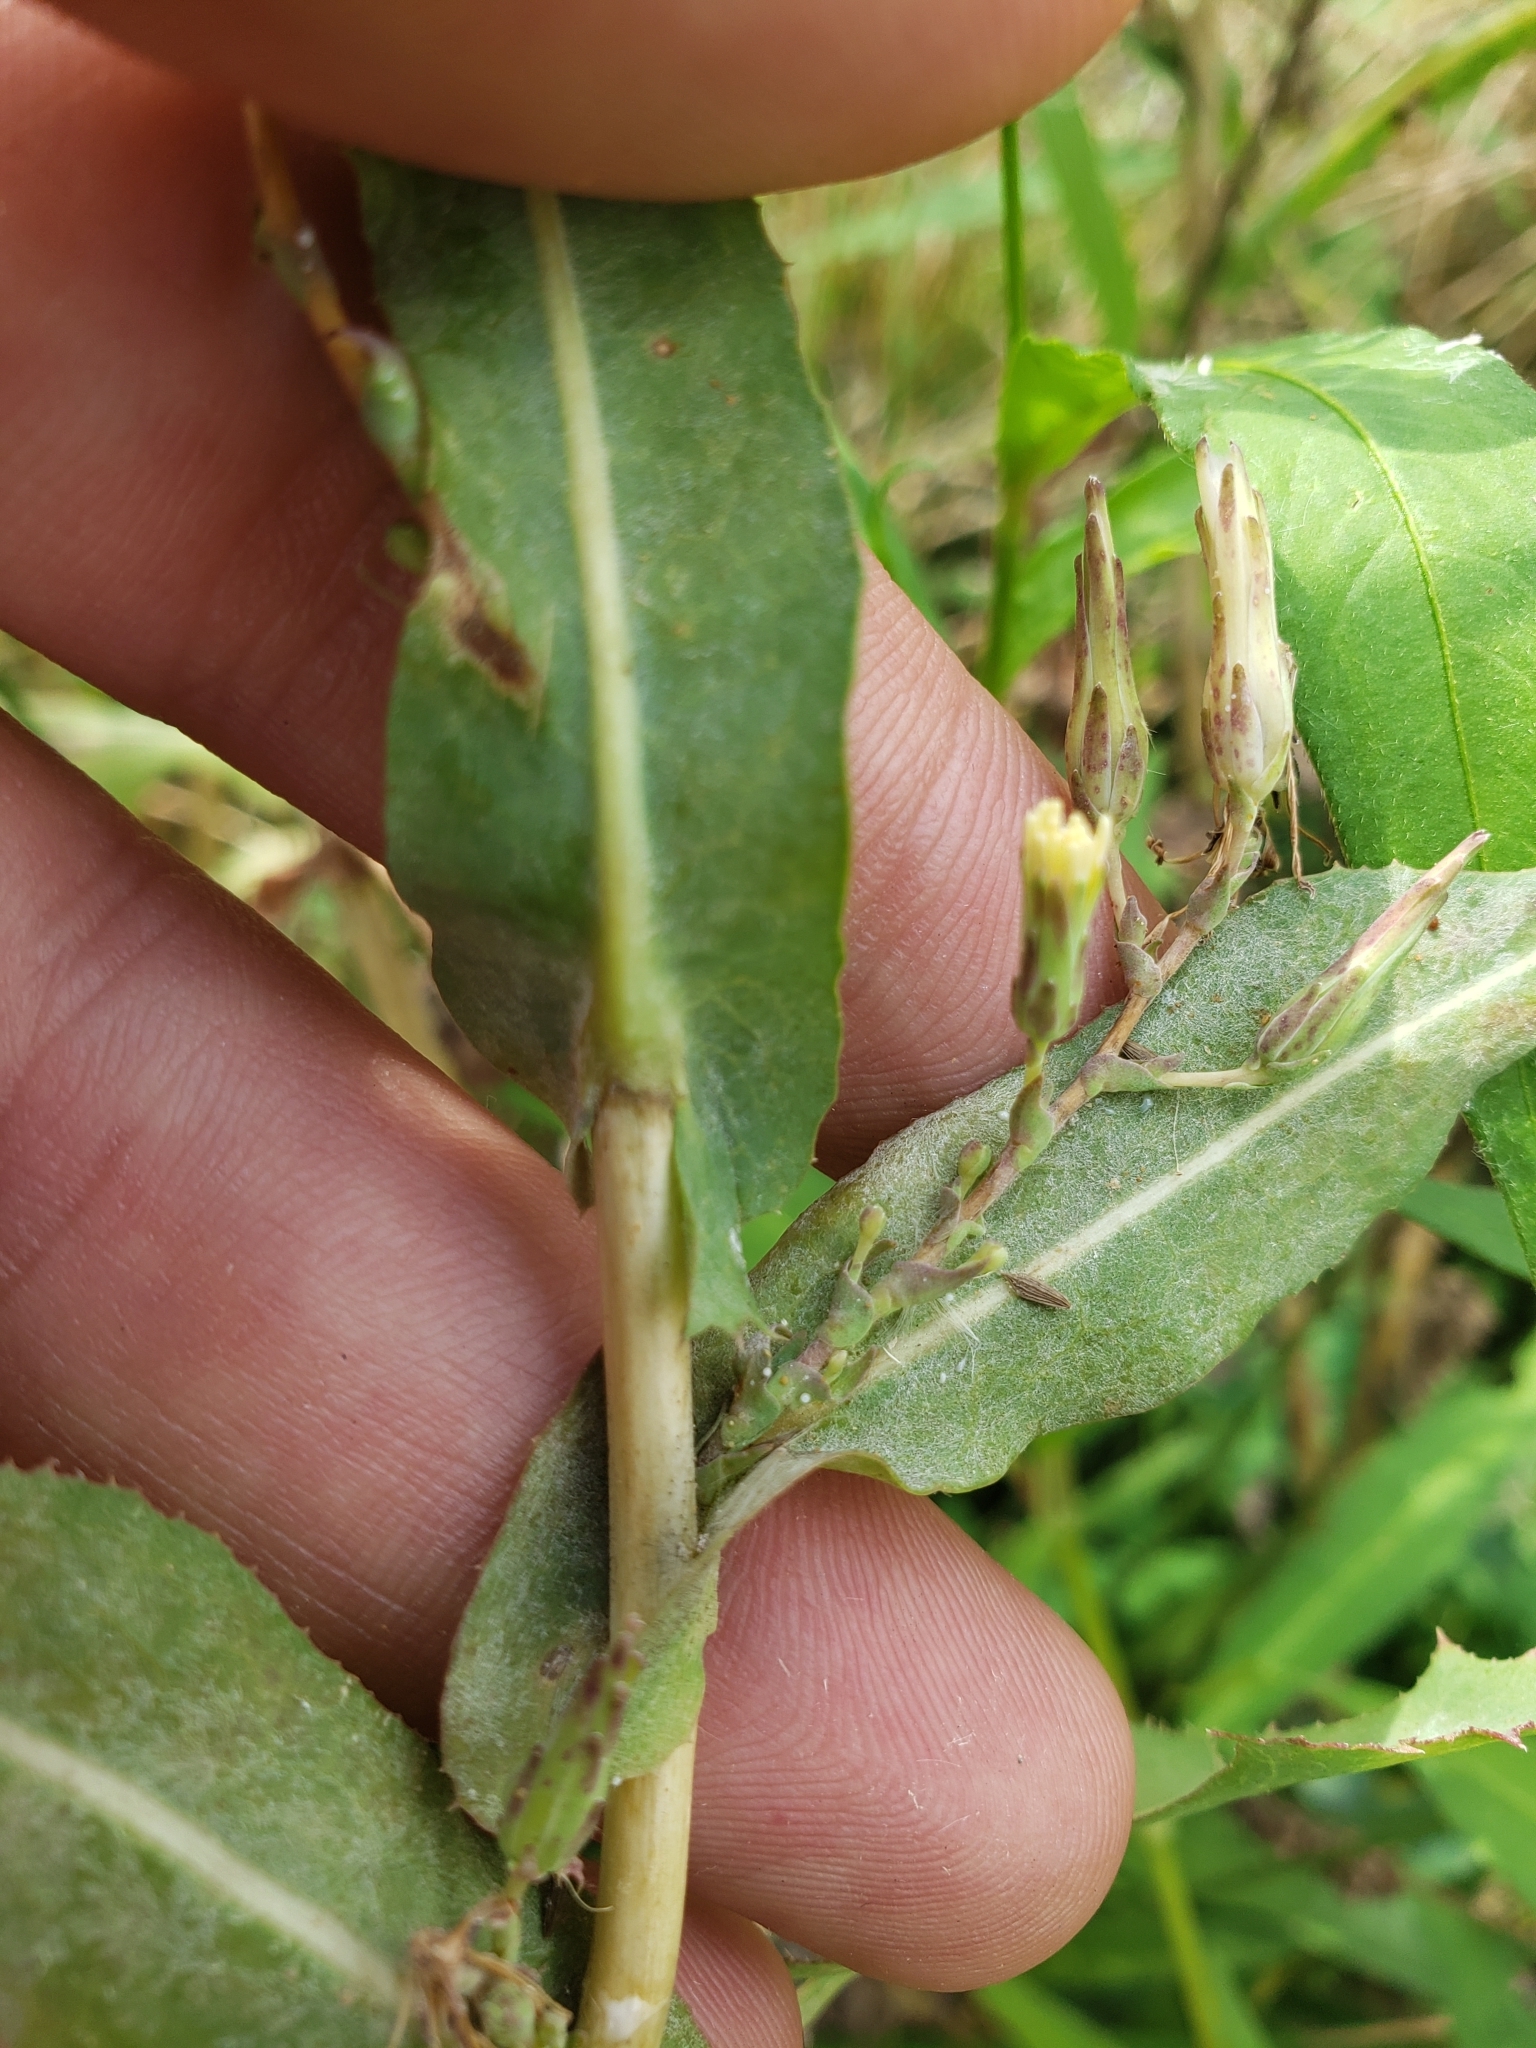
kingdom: Plantae
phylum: Tracheophyta
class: Magnoliopsida
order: Asterales
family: Asteraceae
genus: Lactuca
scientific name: Lactuca saligna
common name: Wild lettuce
